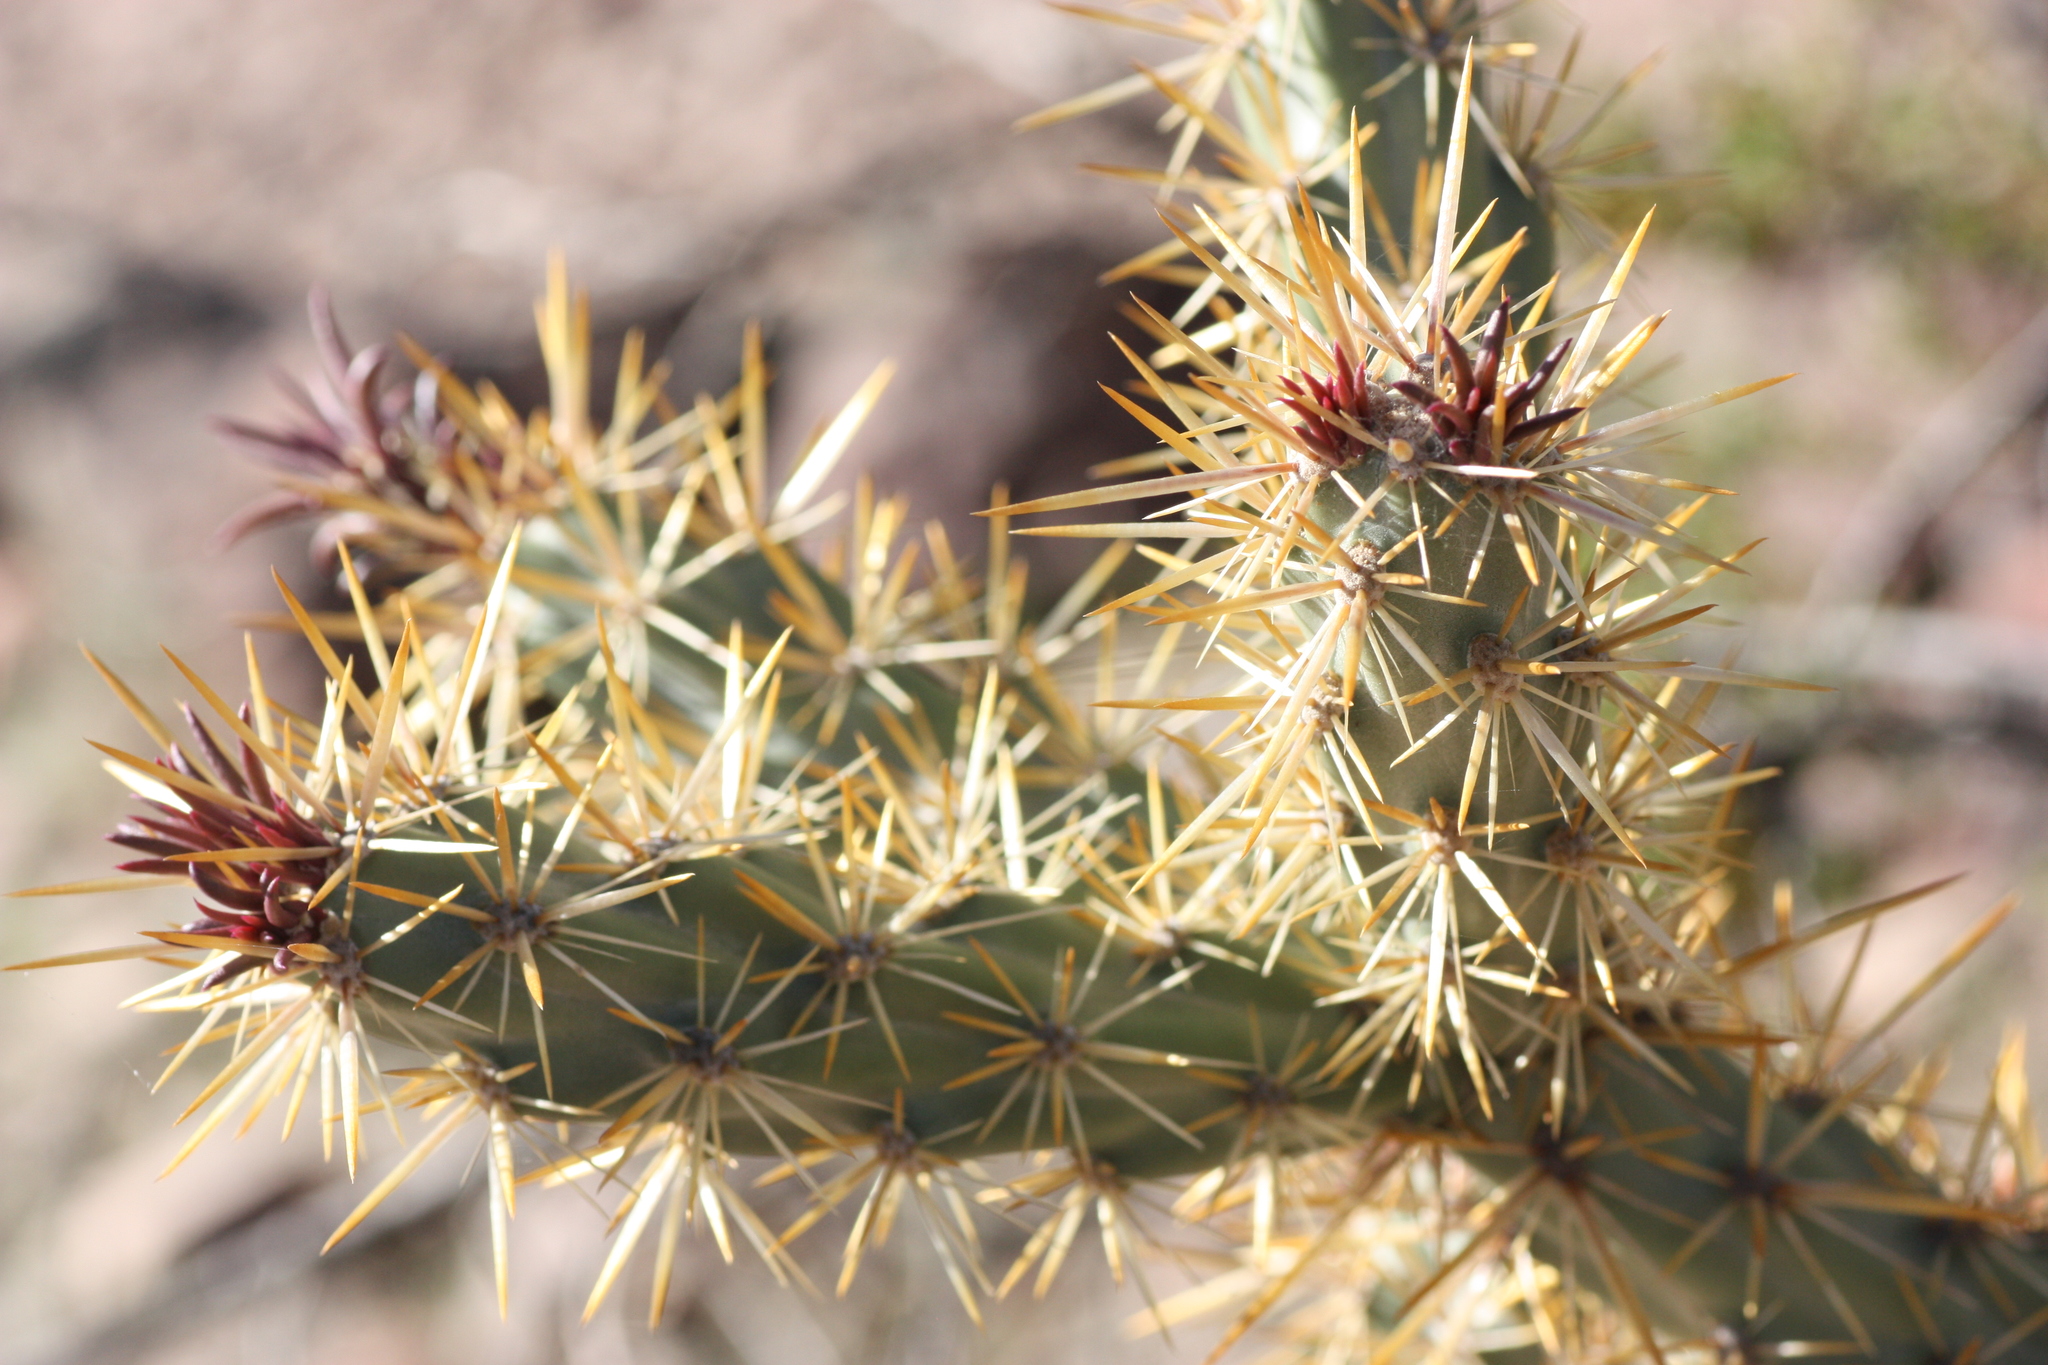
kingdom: Plantae
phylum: Tracheophyta
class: Magnoliopsida
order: Caryophyllales
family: Cactaceae
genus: Cylindropuntia
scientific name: Cylindropuntia acanthocarpa
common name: Buckhorn cholla
